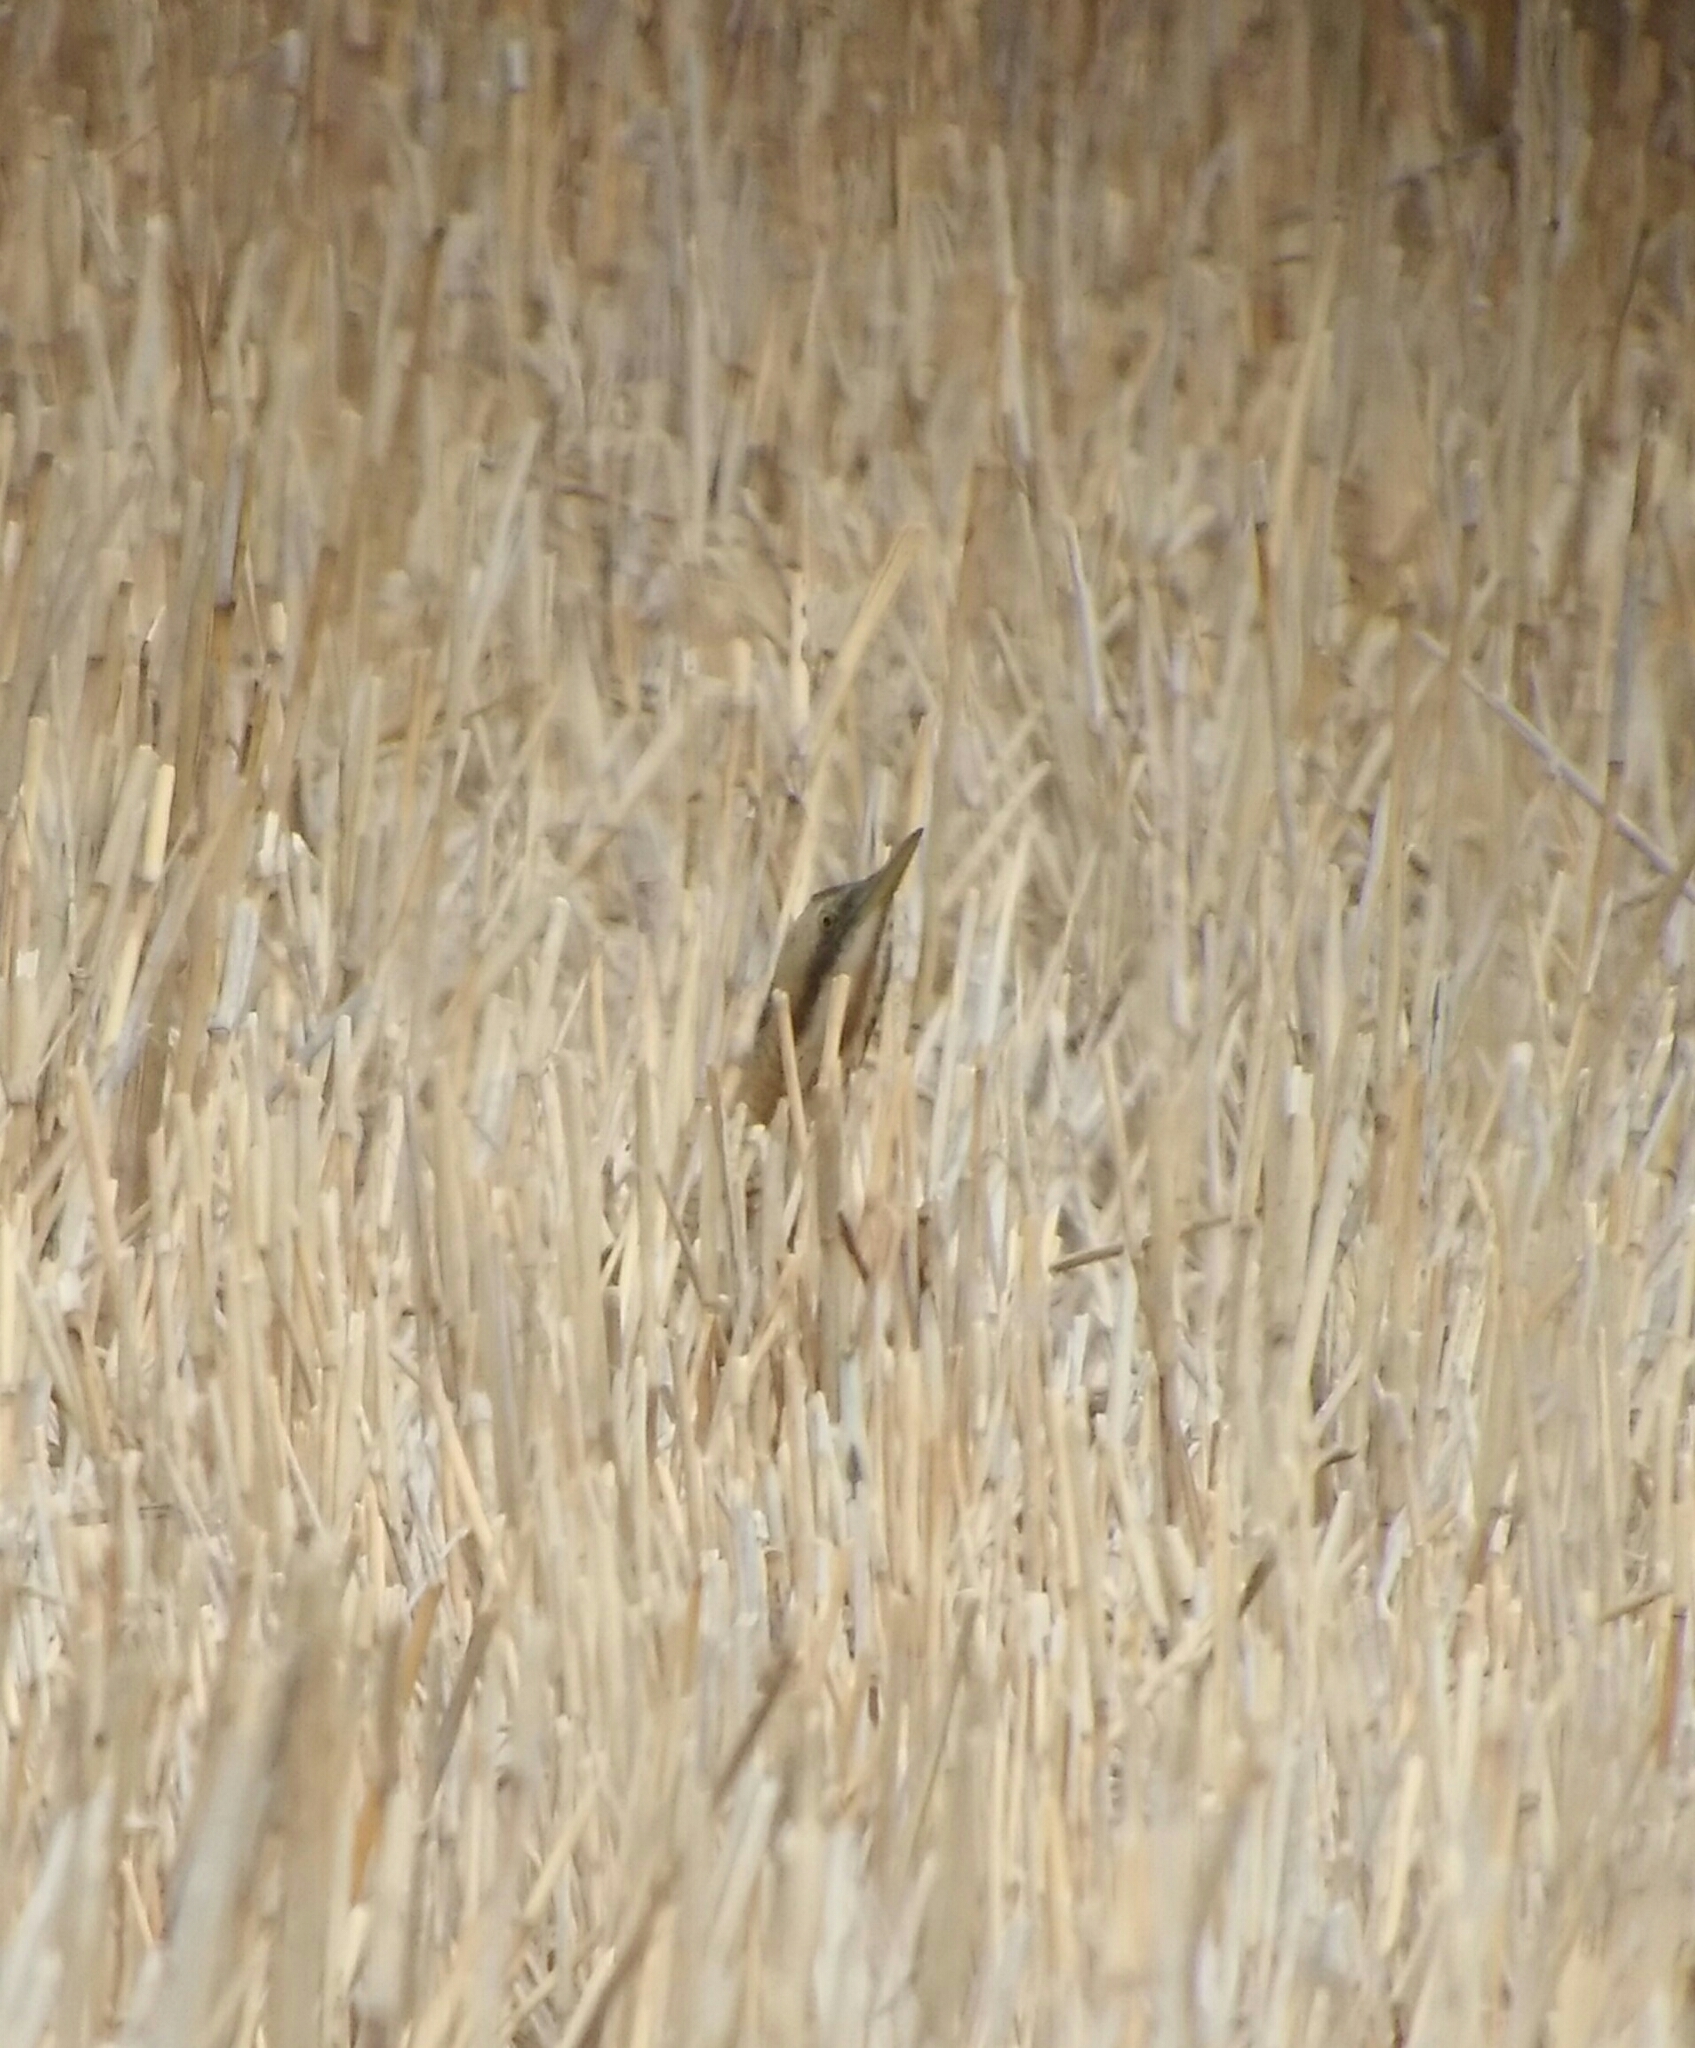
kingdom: Animalia
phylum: Chordata
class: Aves
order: Pelecaniformes
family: Ardeidae
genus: Botaurus
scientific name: Botaurus stellaris
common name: Eurasian bittern
